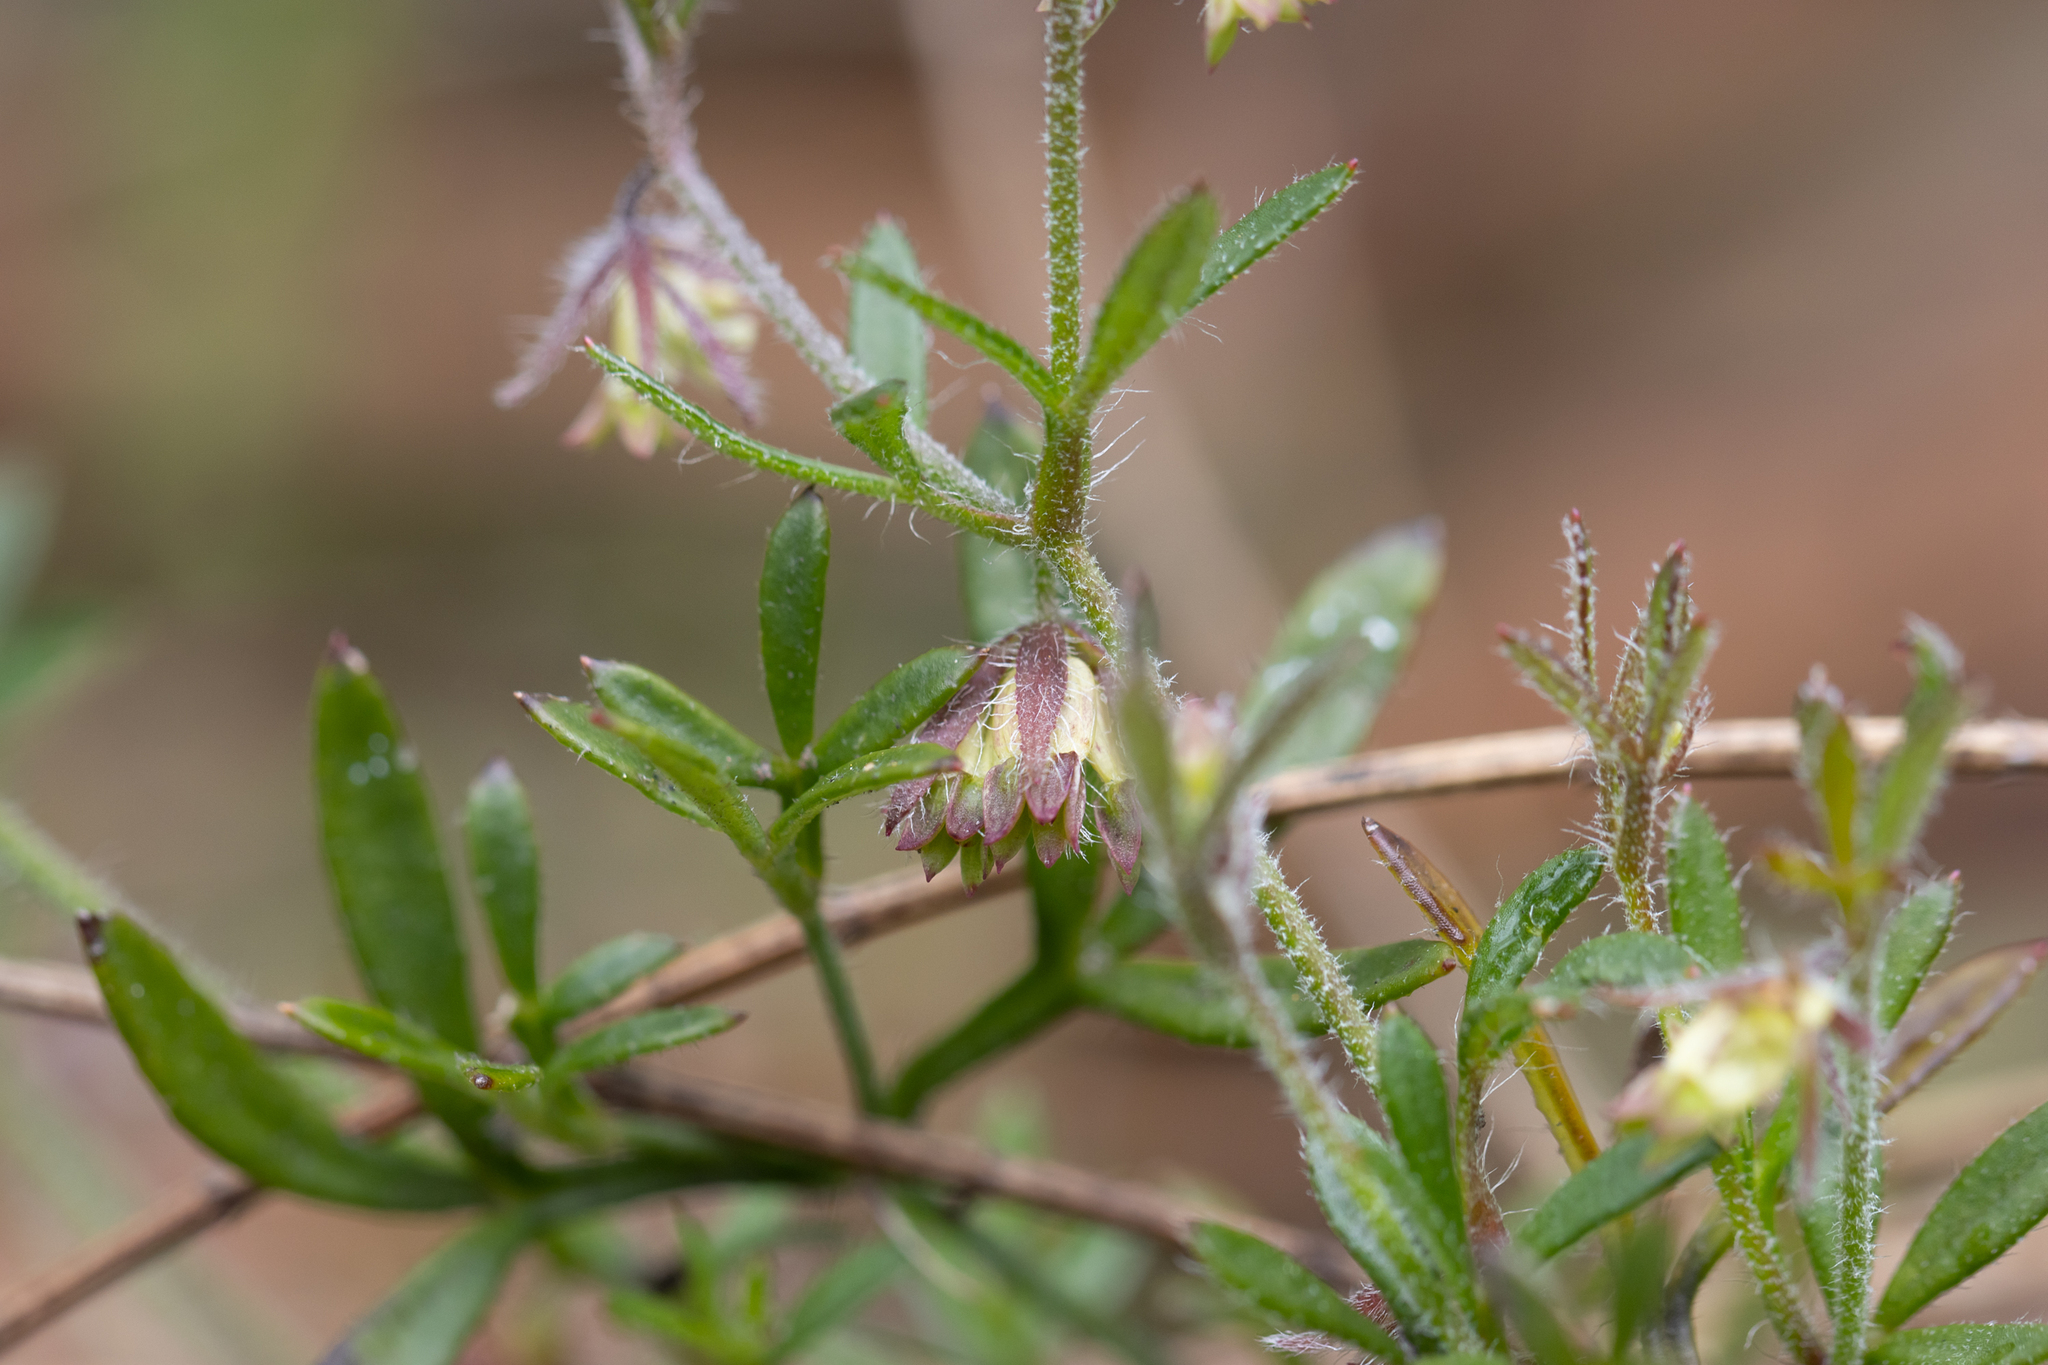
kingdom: Plantae
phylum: Tracheophyta
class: Magnoliopsida
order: Apiales
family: Apiaceae
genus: Xanthosia
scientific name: Xanthosia huegelii
